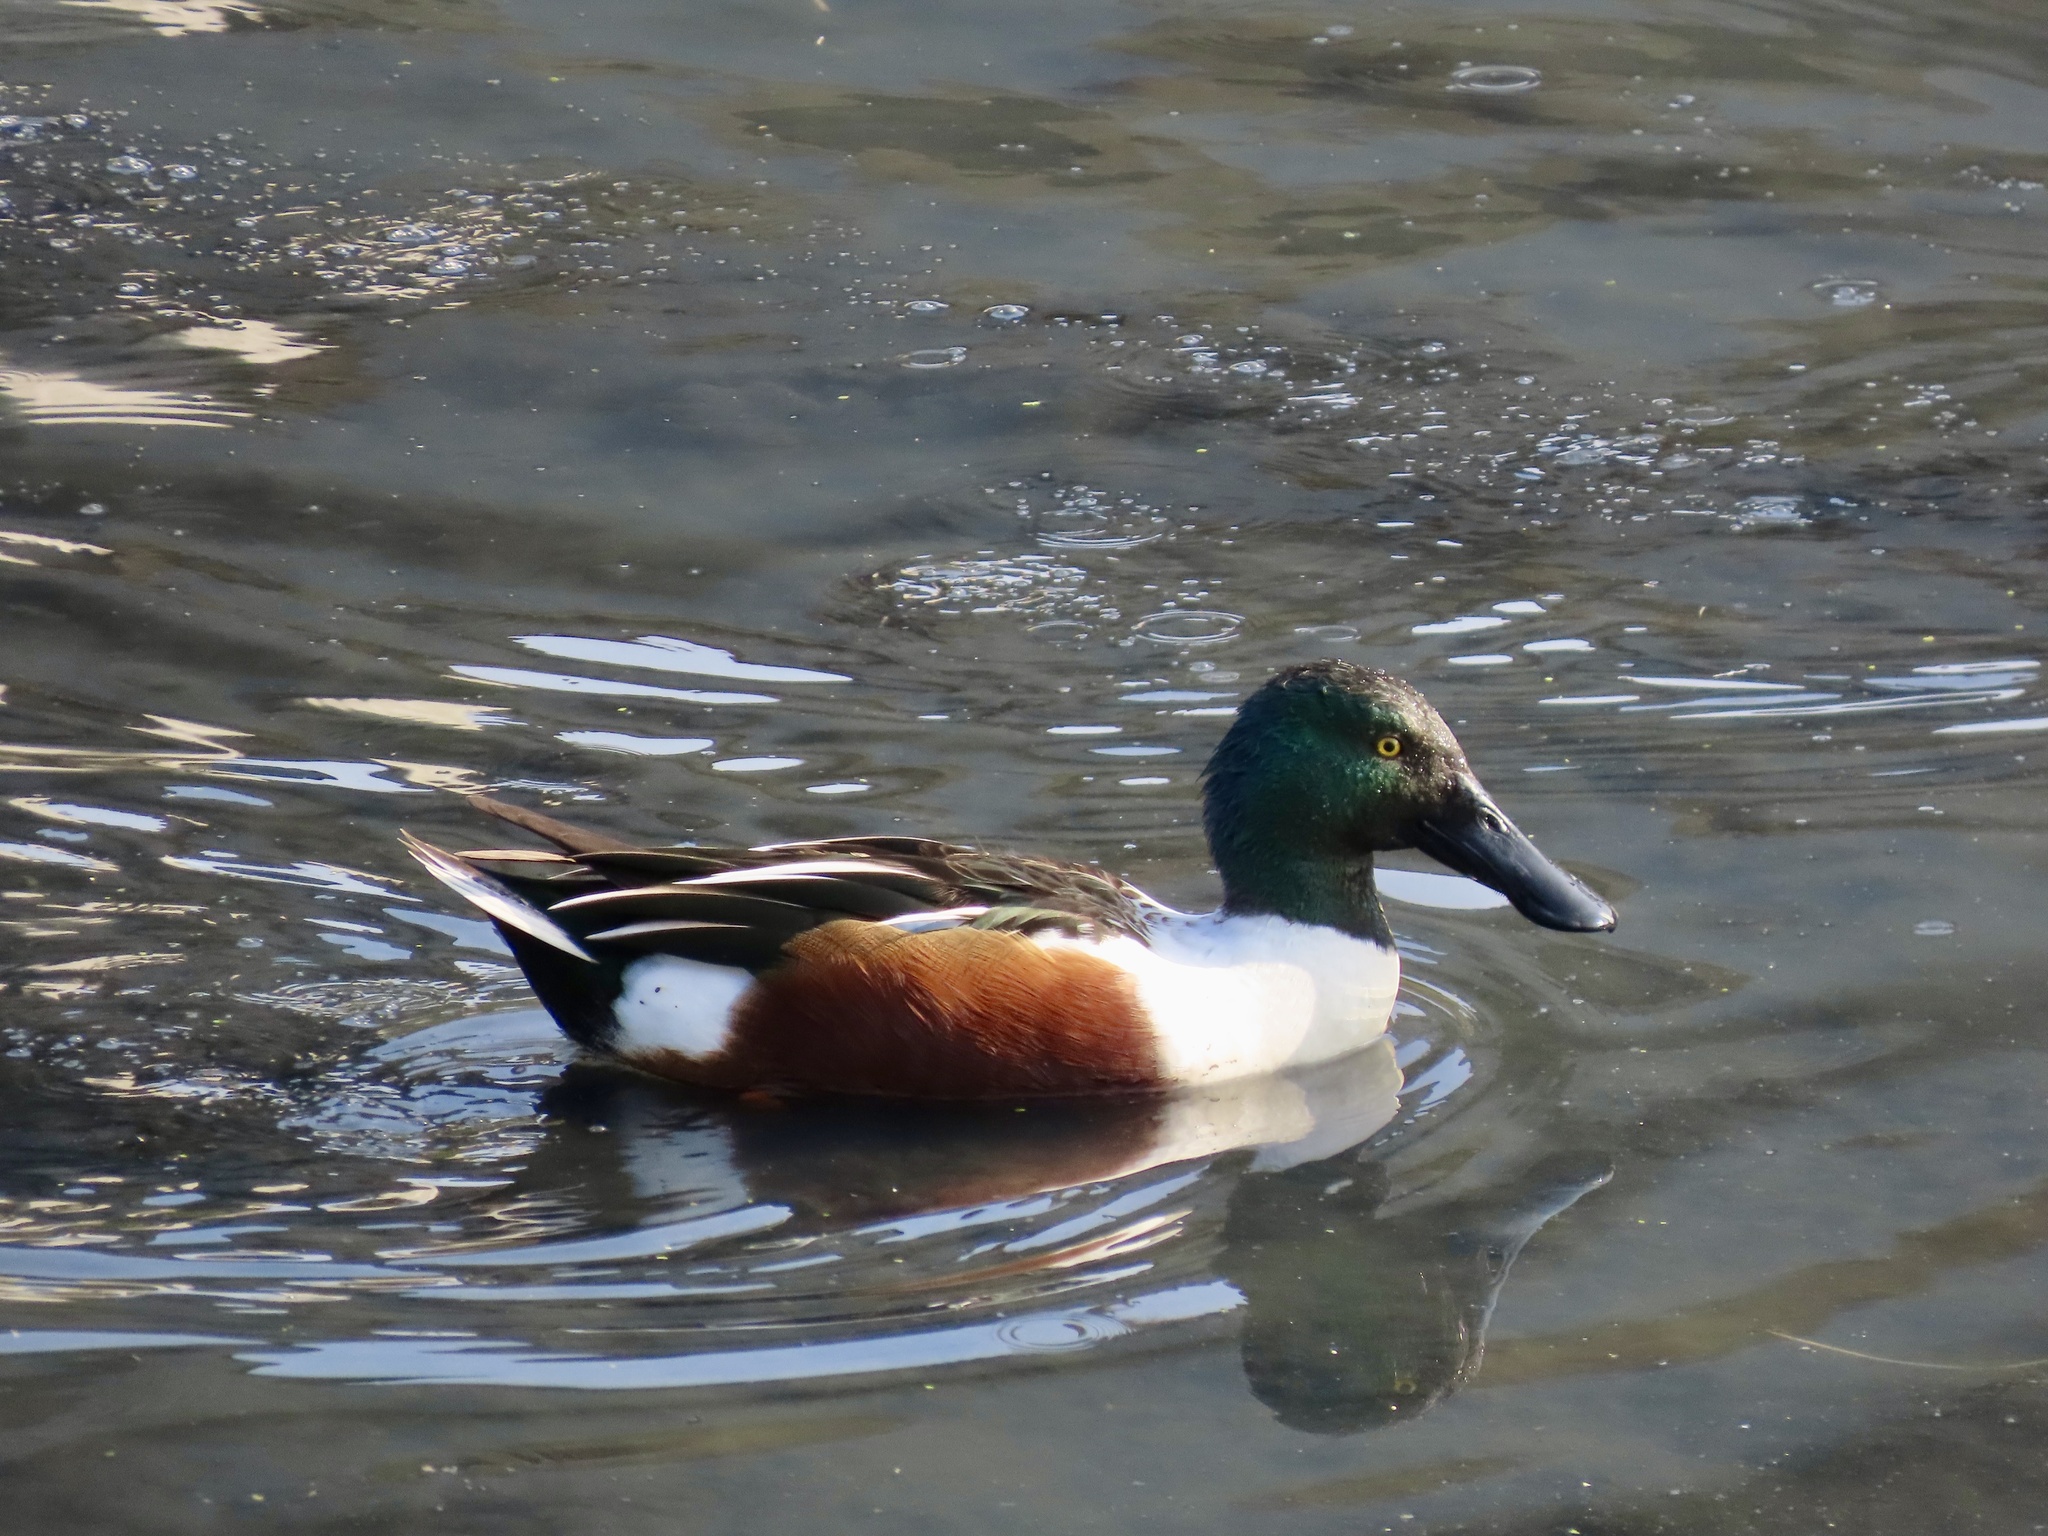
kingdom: Animalia
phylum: Chordata
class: Aves
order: Anseriformes
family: Anatidae
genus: Spatula
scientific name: Spatula clypeata
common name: Northern shoveler
